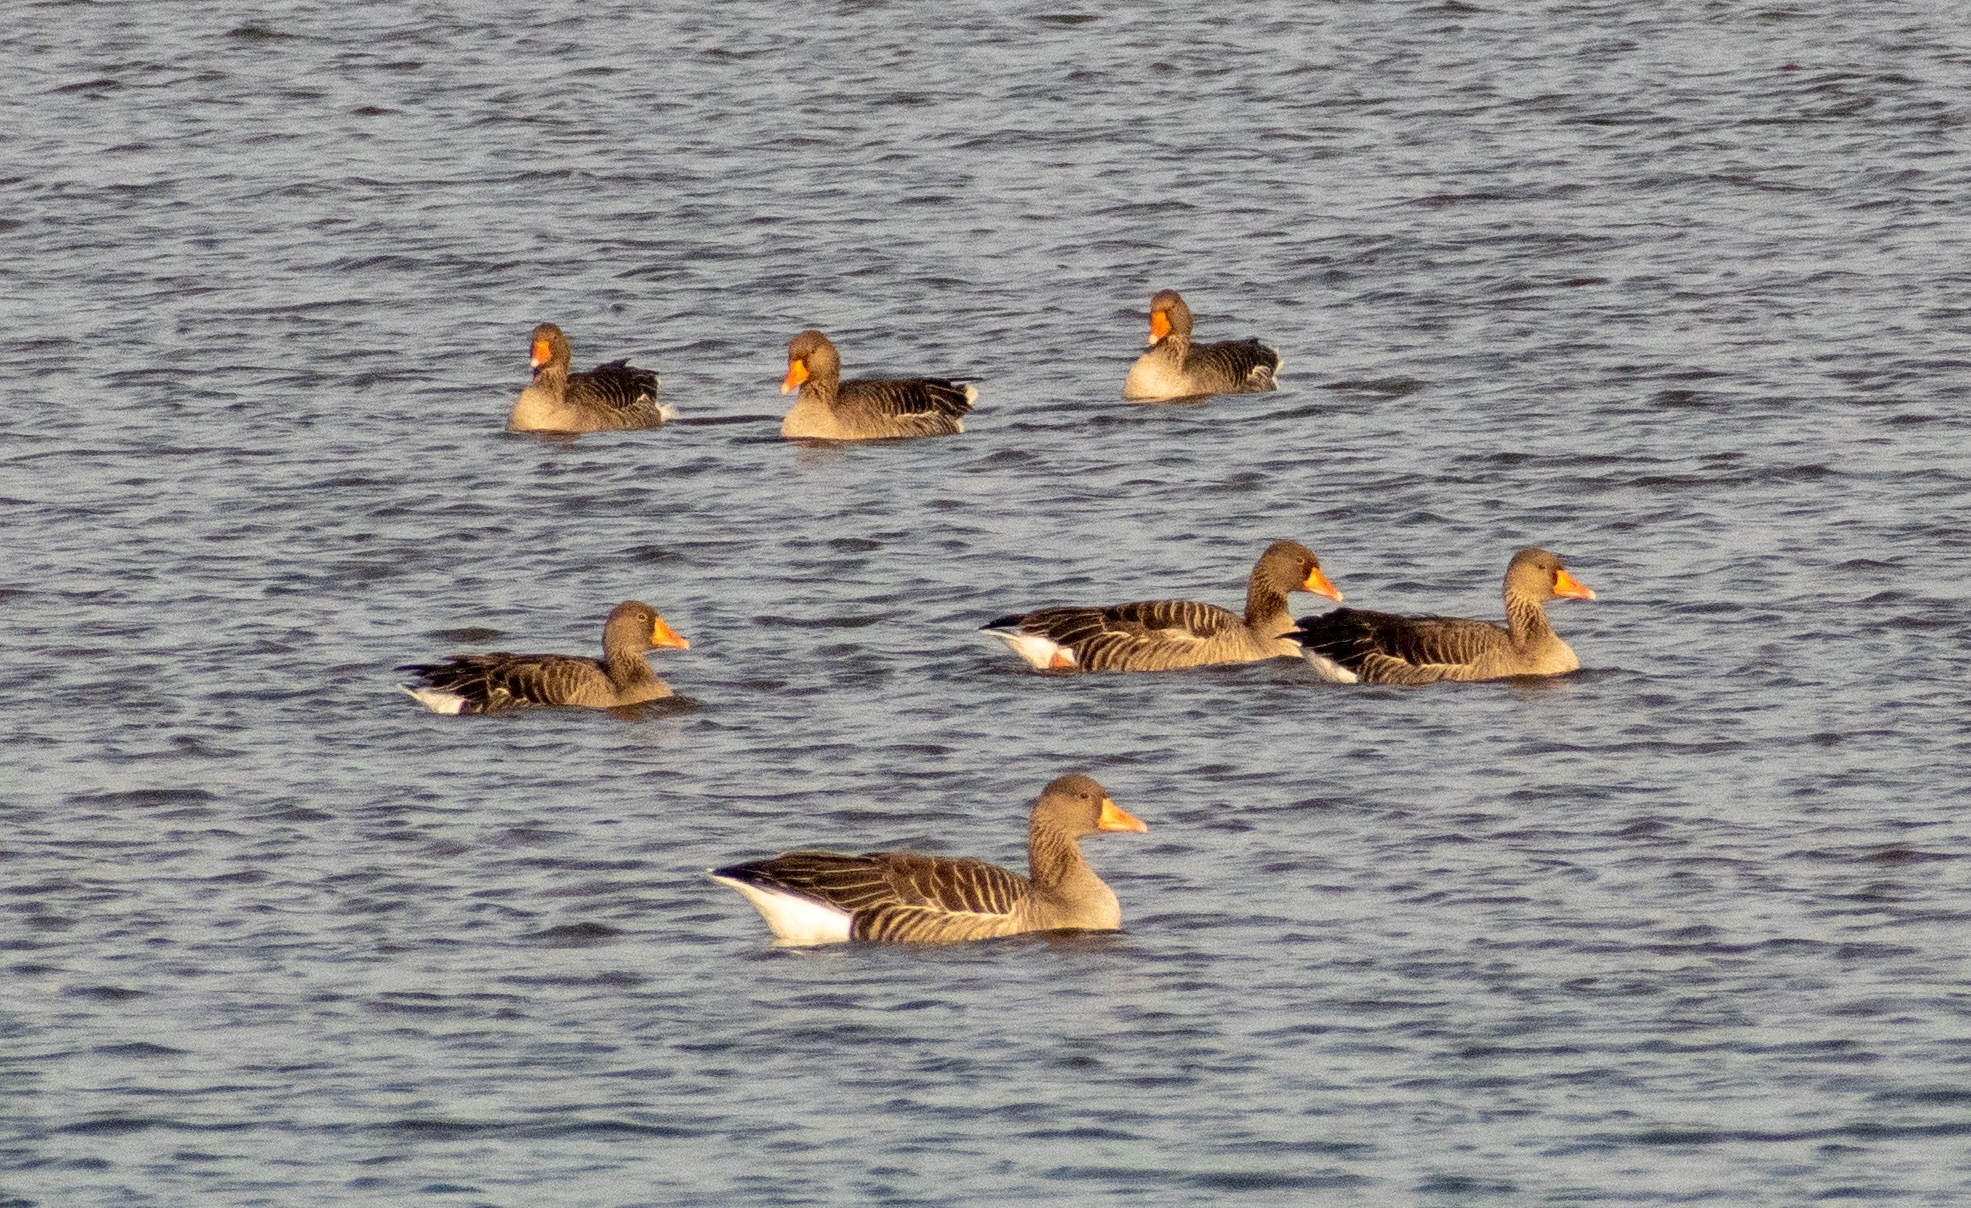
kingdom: Animalia
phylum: Chordata
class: Aves
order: Anseriformes
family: Anatidae
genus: Anser
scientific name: Anser anser
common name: Greylag goose
